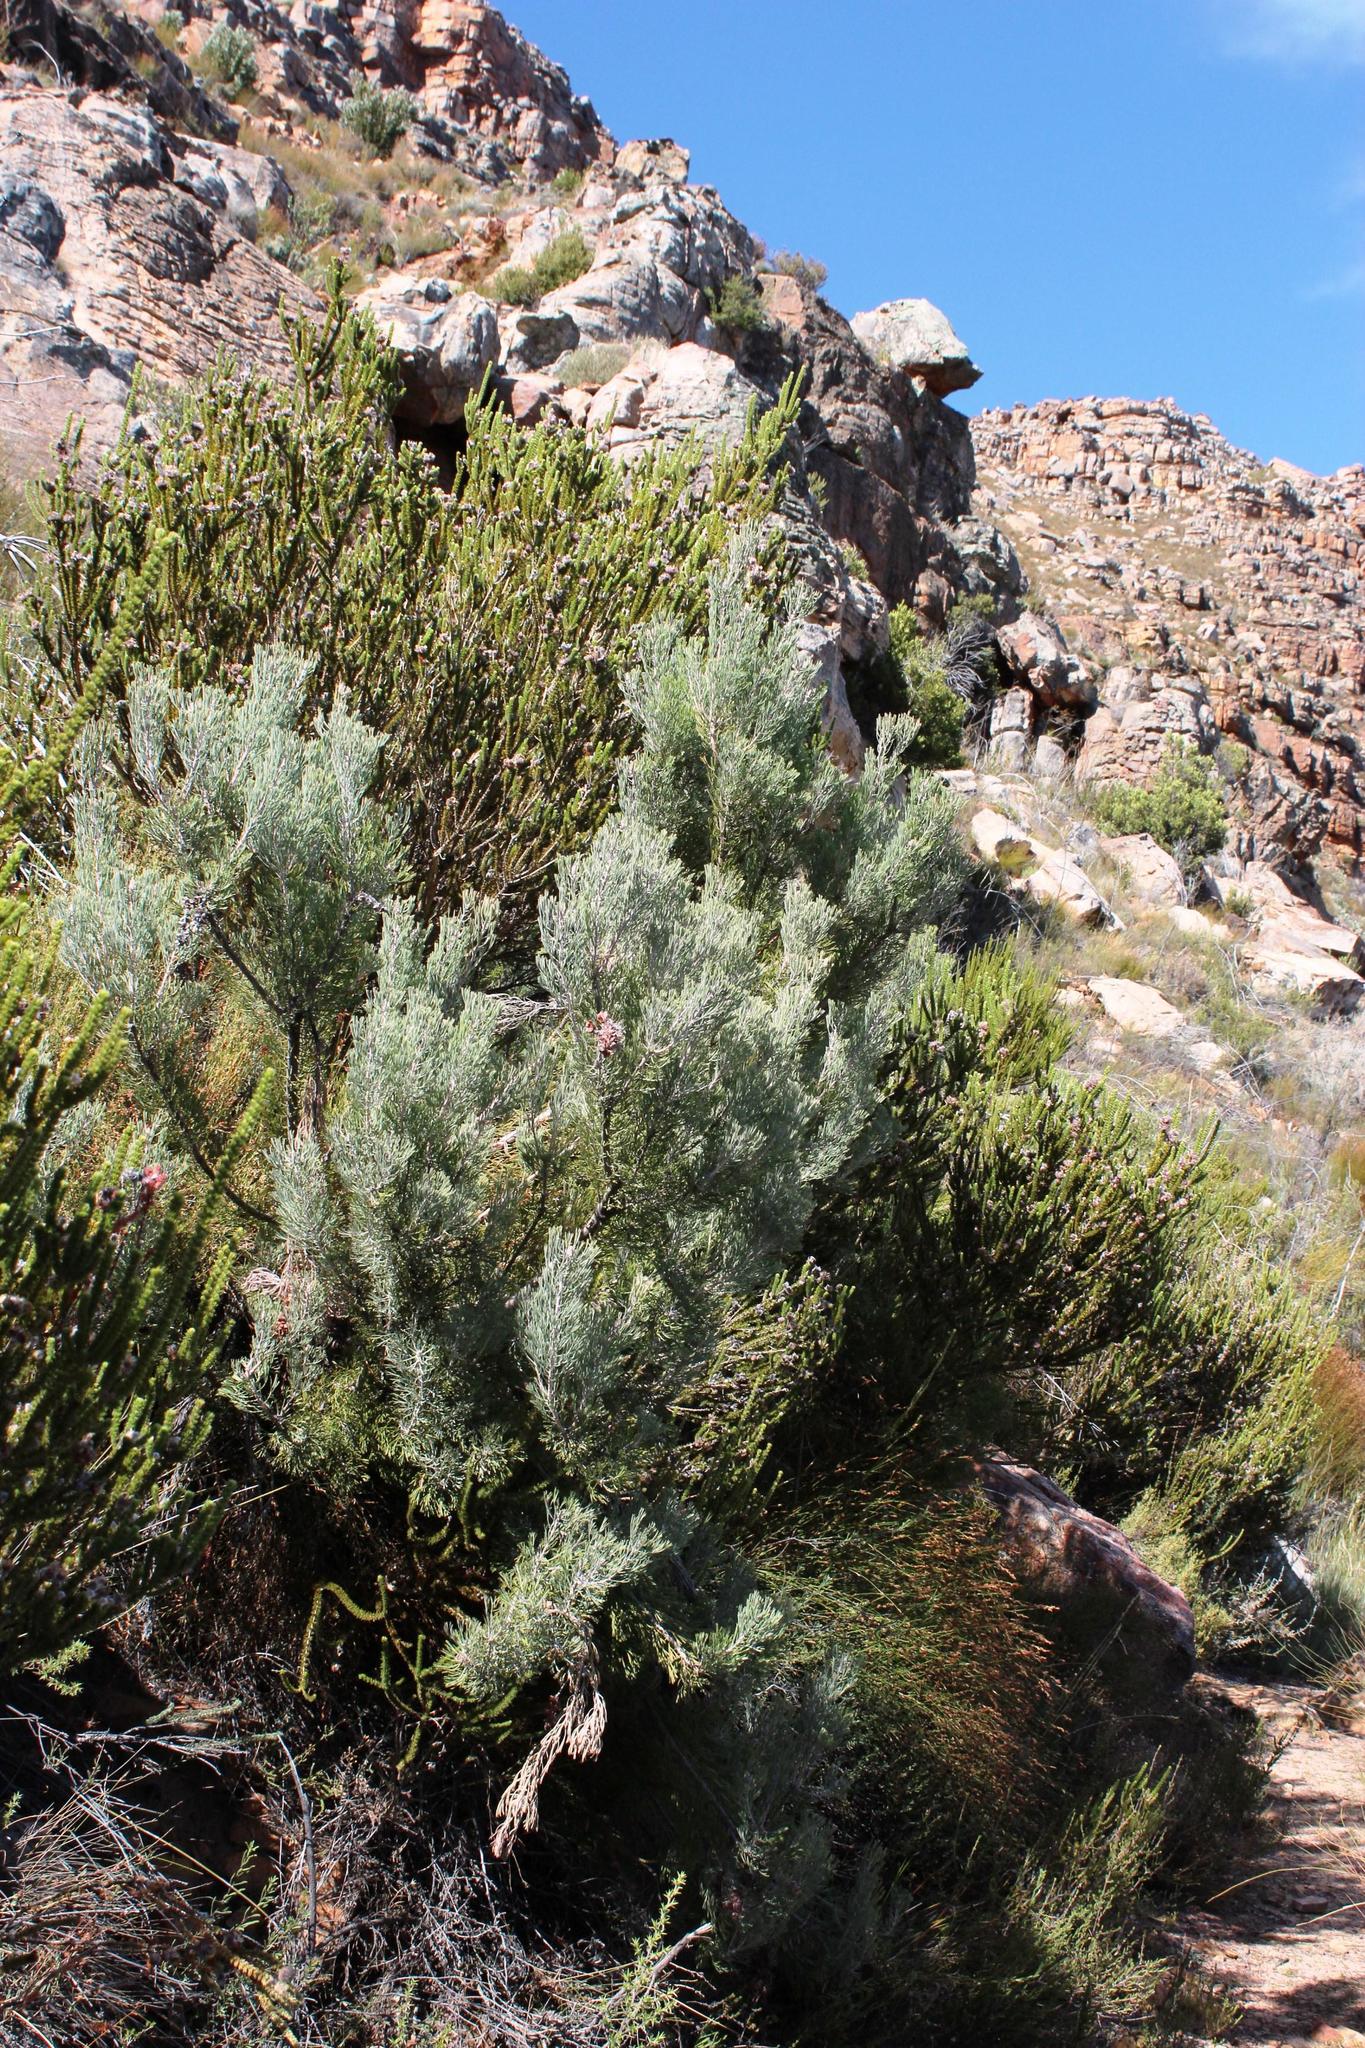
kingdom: Plantae
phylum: Tracheophyta
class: Magnoliopsida
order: Proteales
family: Proteaceae
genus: Paranomus
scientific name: Paranomus bracteolaris
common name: Bokkeveld tree sceptre
